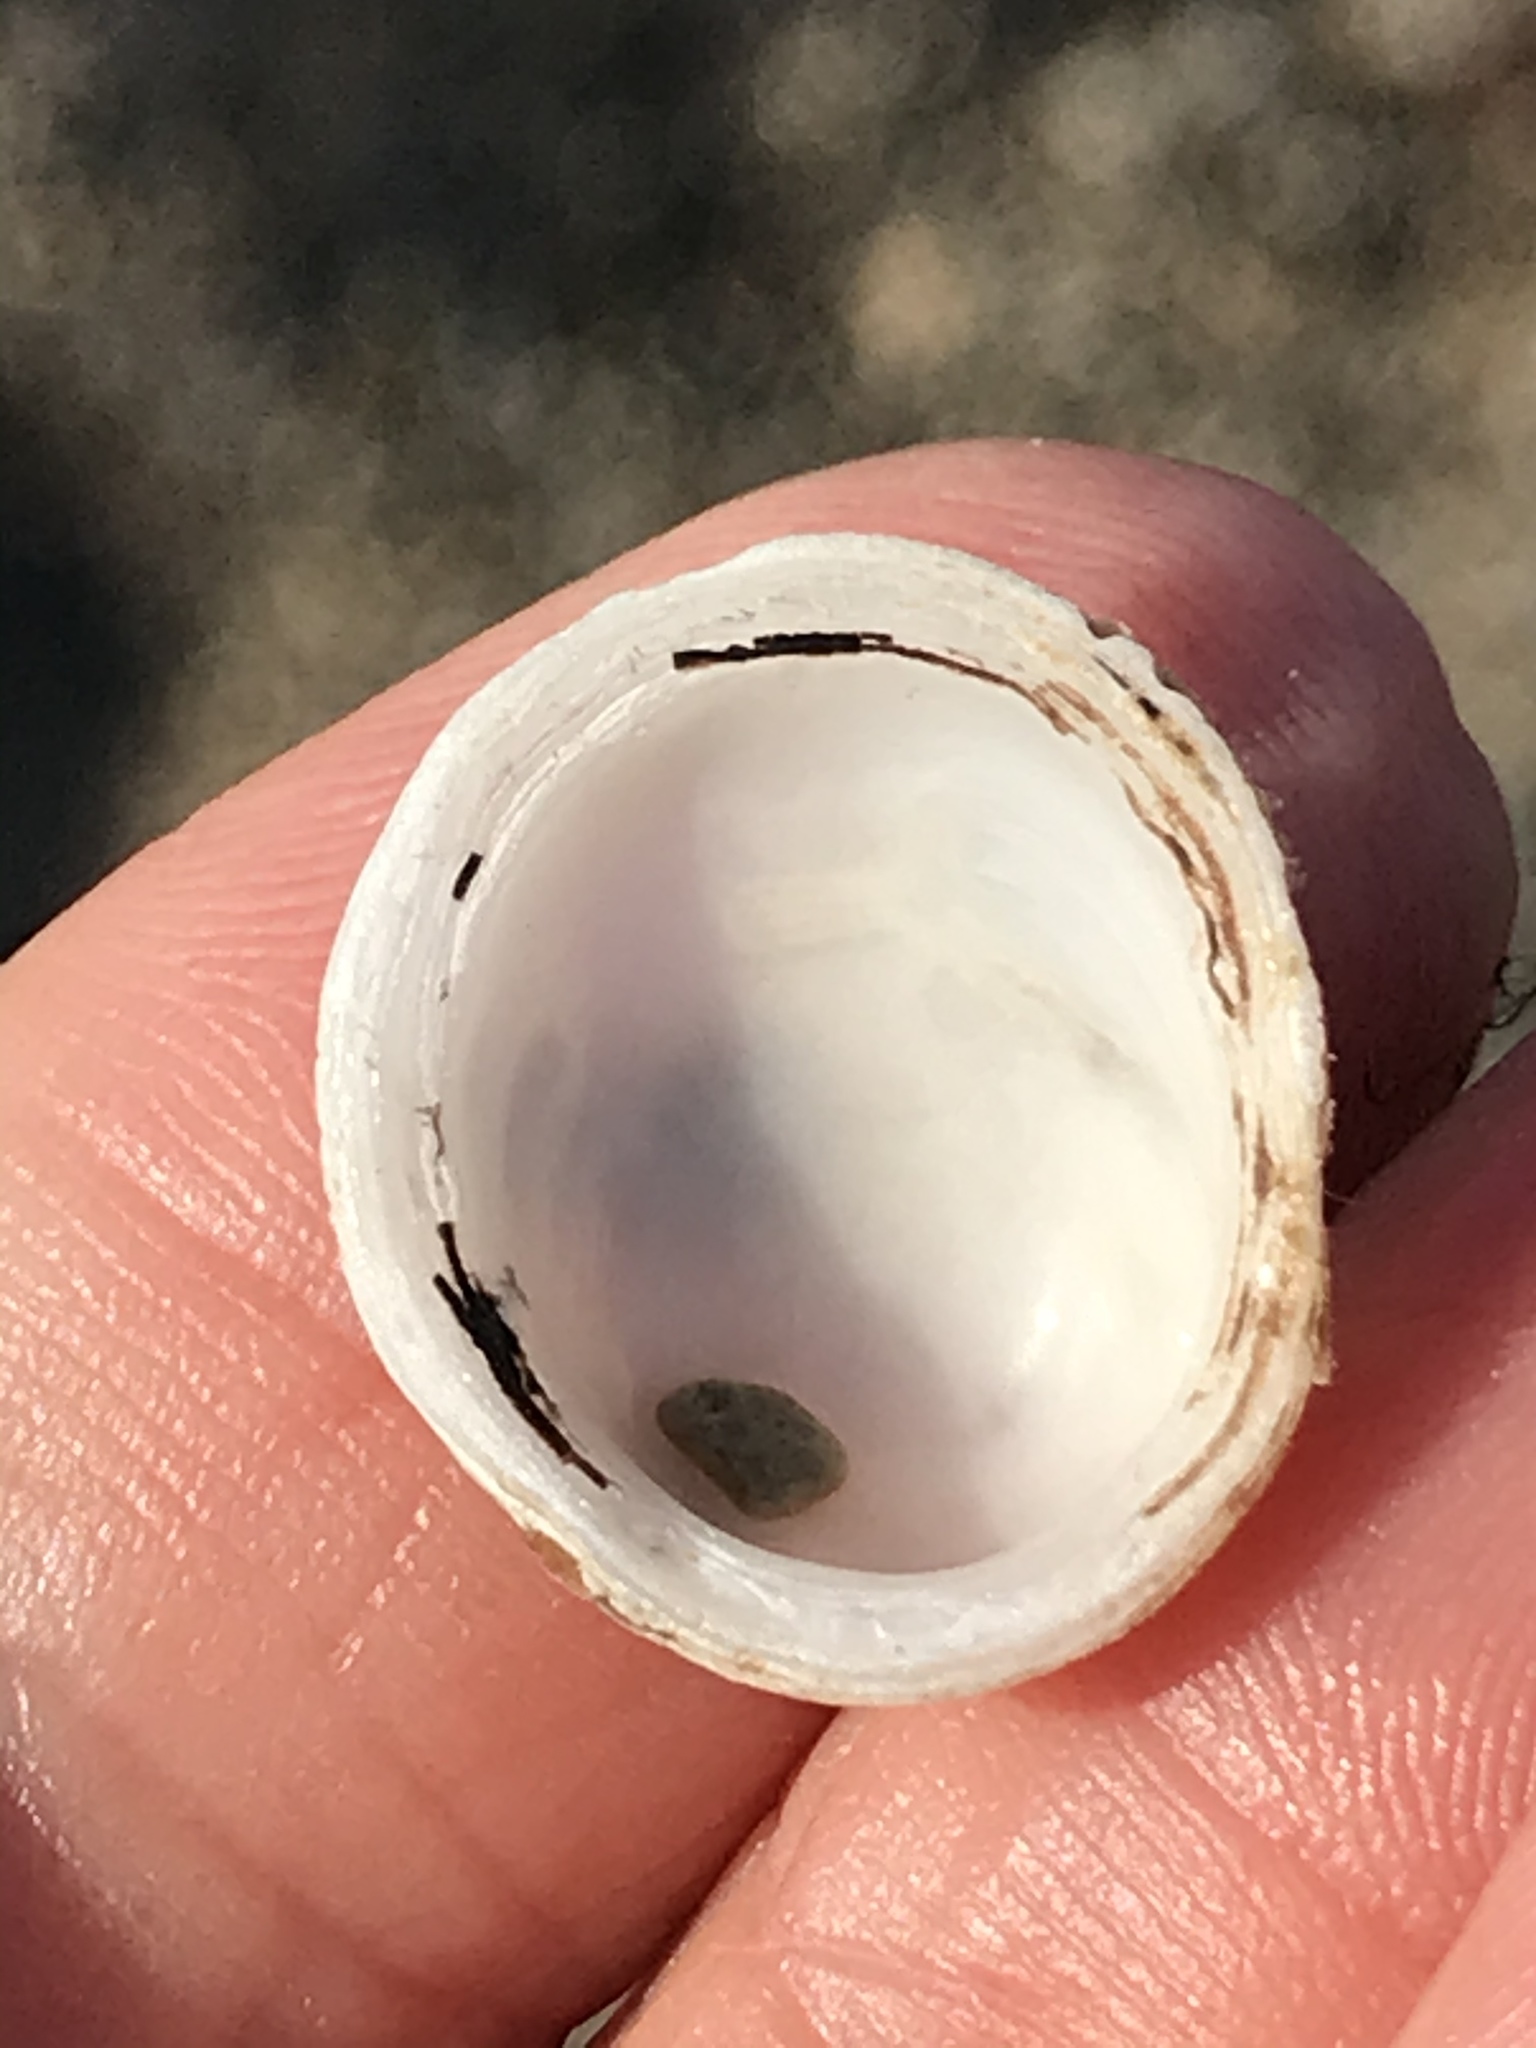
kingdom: Animalia
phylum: Mollusca
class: Gastropoda
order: Littorinimorpha
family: Hipponicidae
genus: Hipponix
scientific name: Hipponix panamensis
